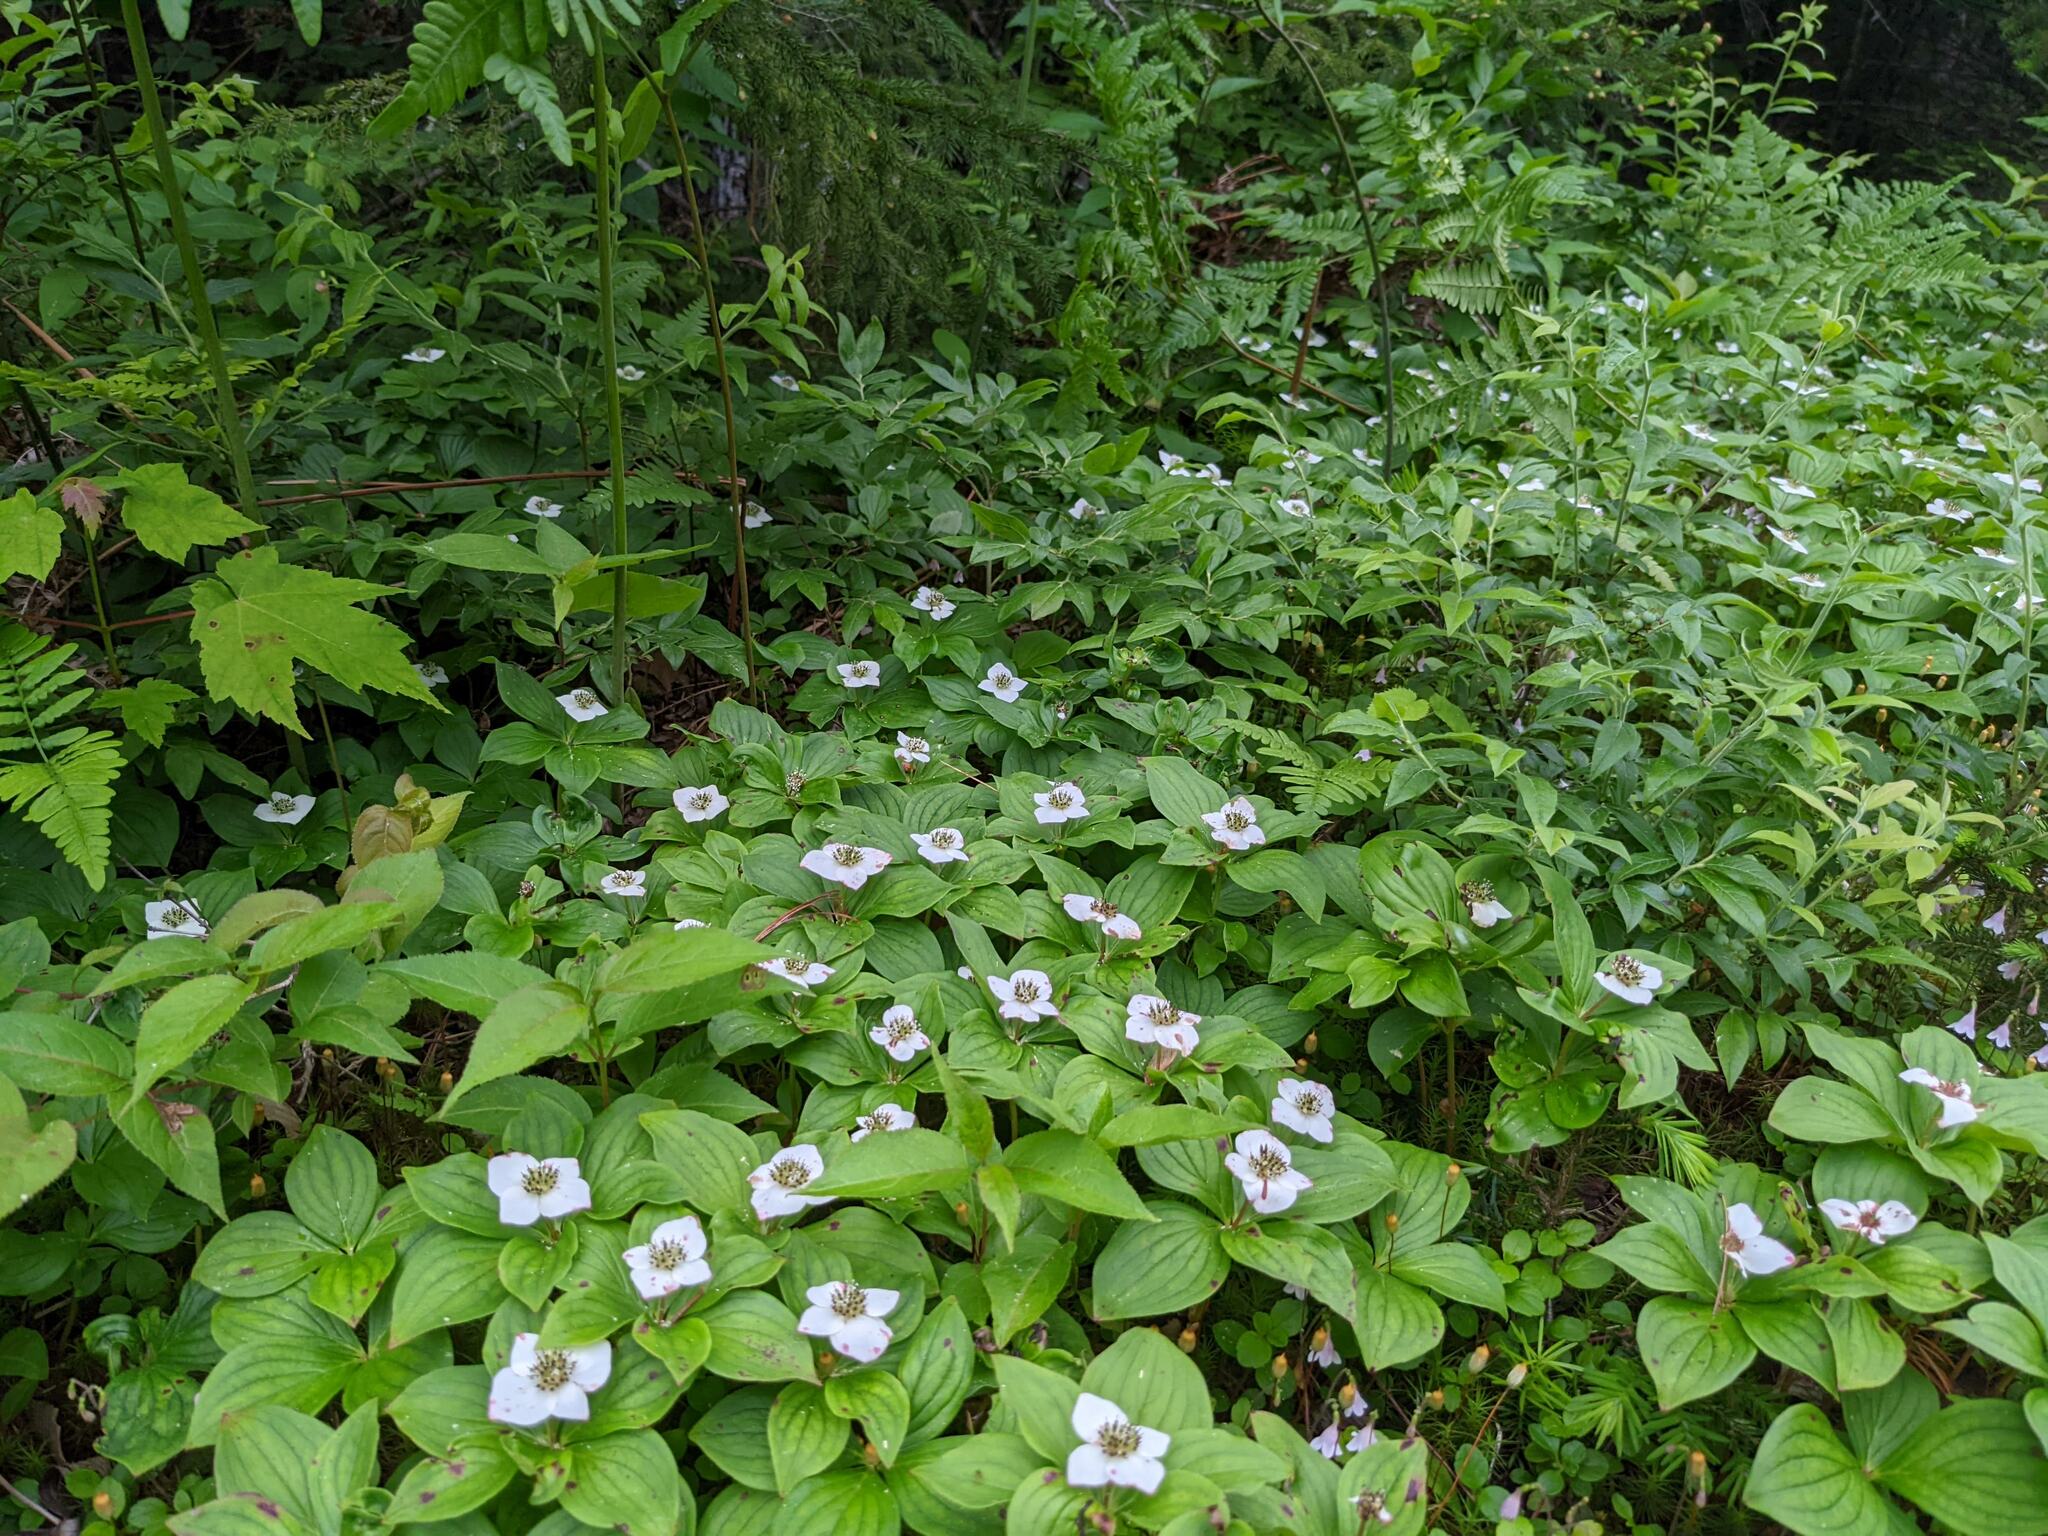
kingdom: Plantae
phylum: Tracheophyta
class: Magnoliopsida
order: Cornales
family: Cornaceae
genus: Cornus
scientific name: Cornus canadensis
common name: Creeping dogwood
